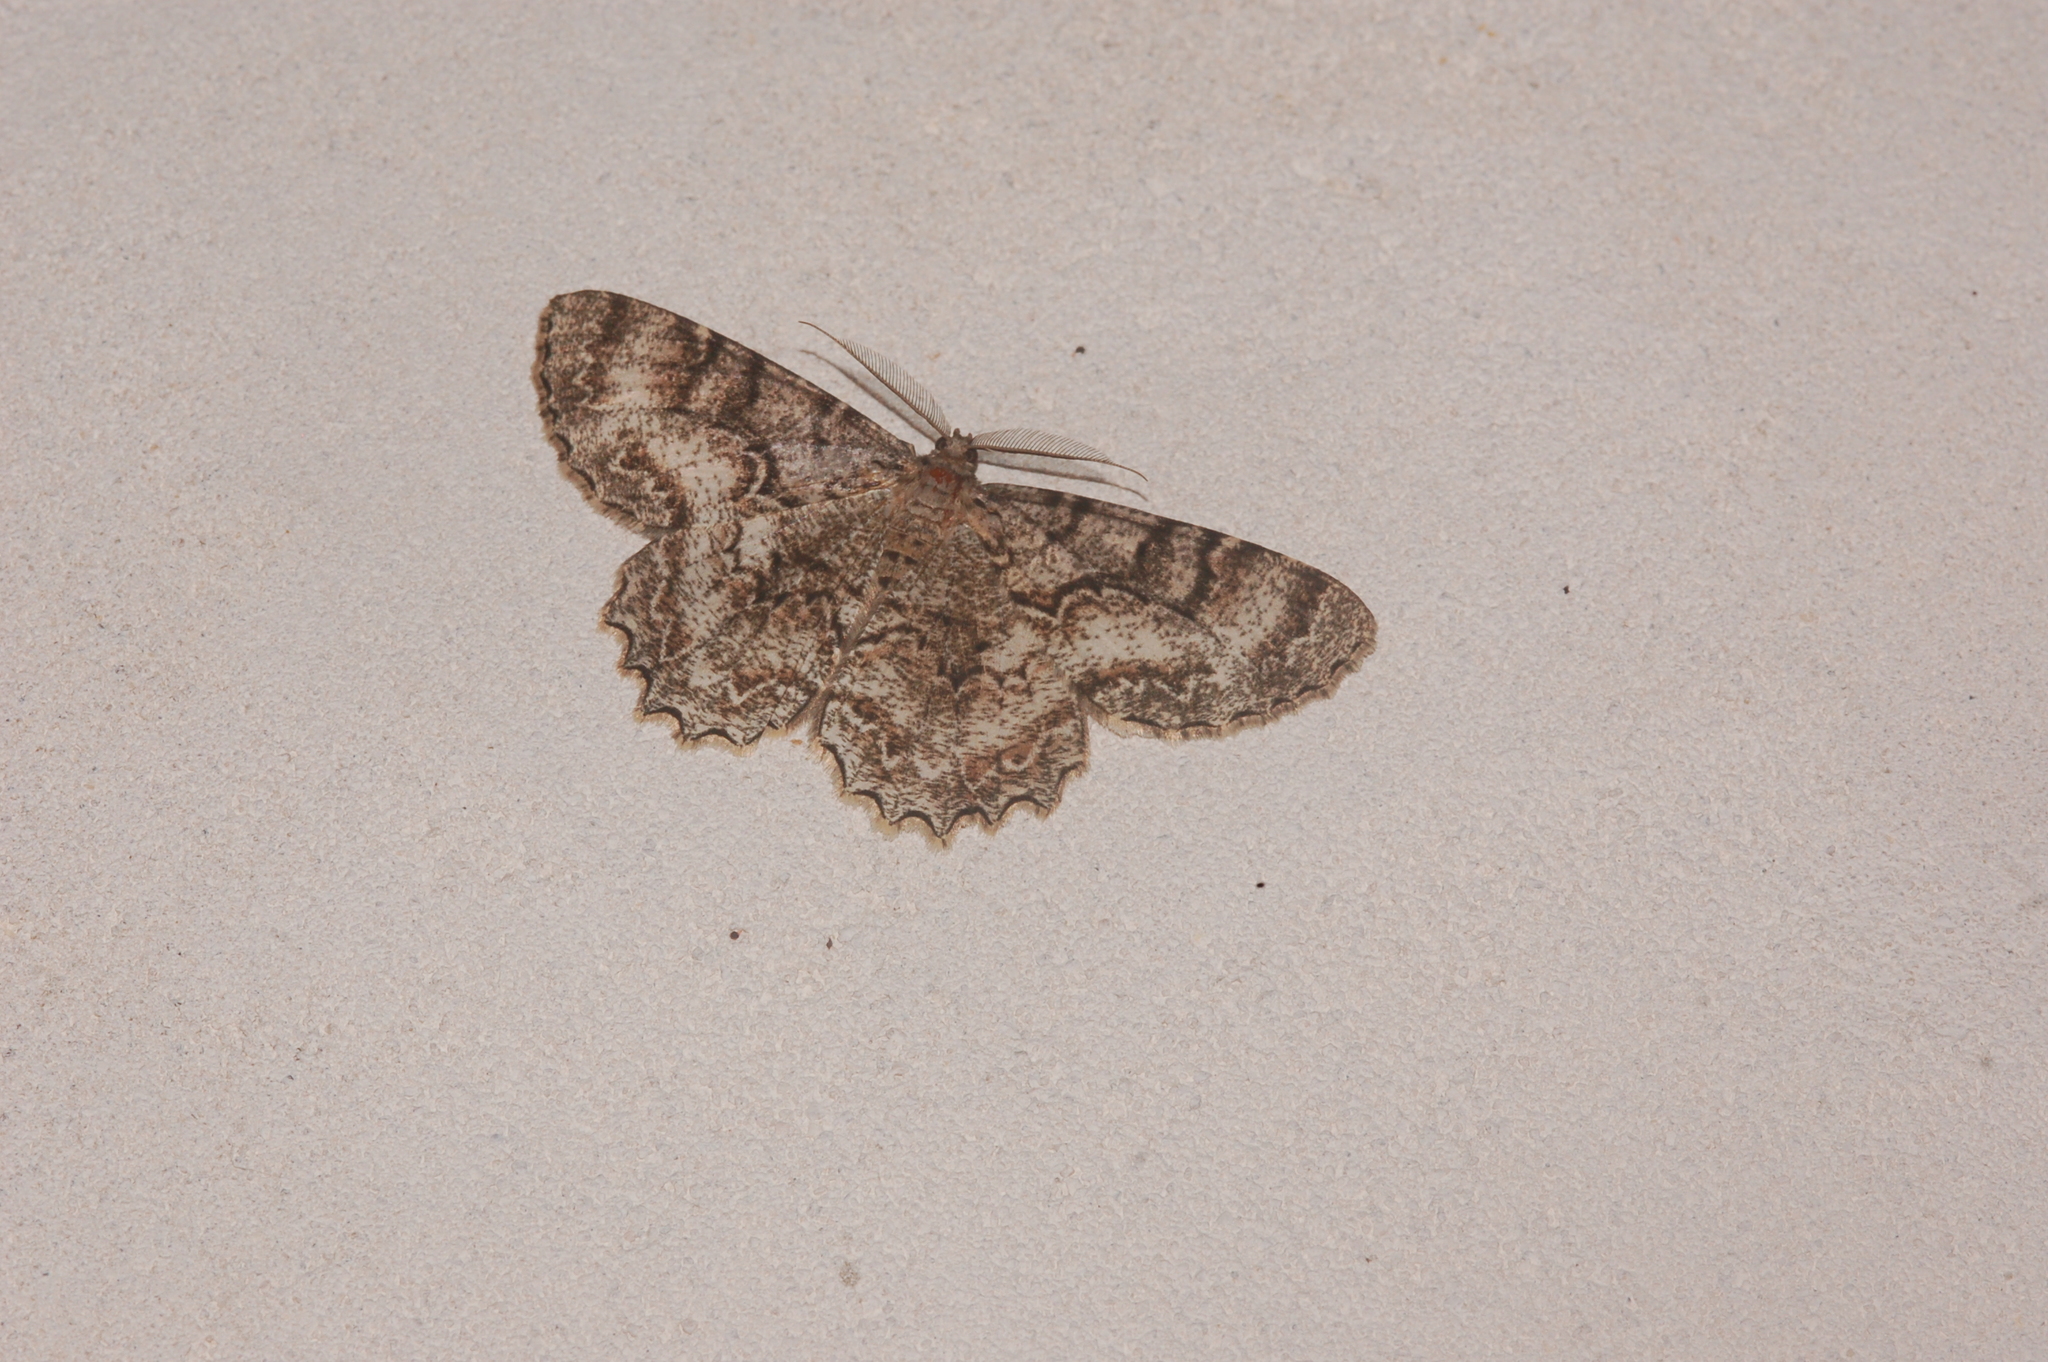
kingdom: Animalia
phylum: Arthropoda
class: Insecta
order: Lepidoptera
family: Geometridae
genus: Epimecis
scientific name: Epimecis hortaria
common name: Tulip-tree beauty
